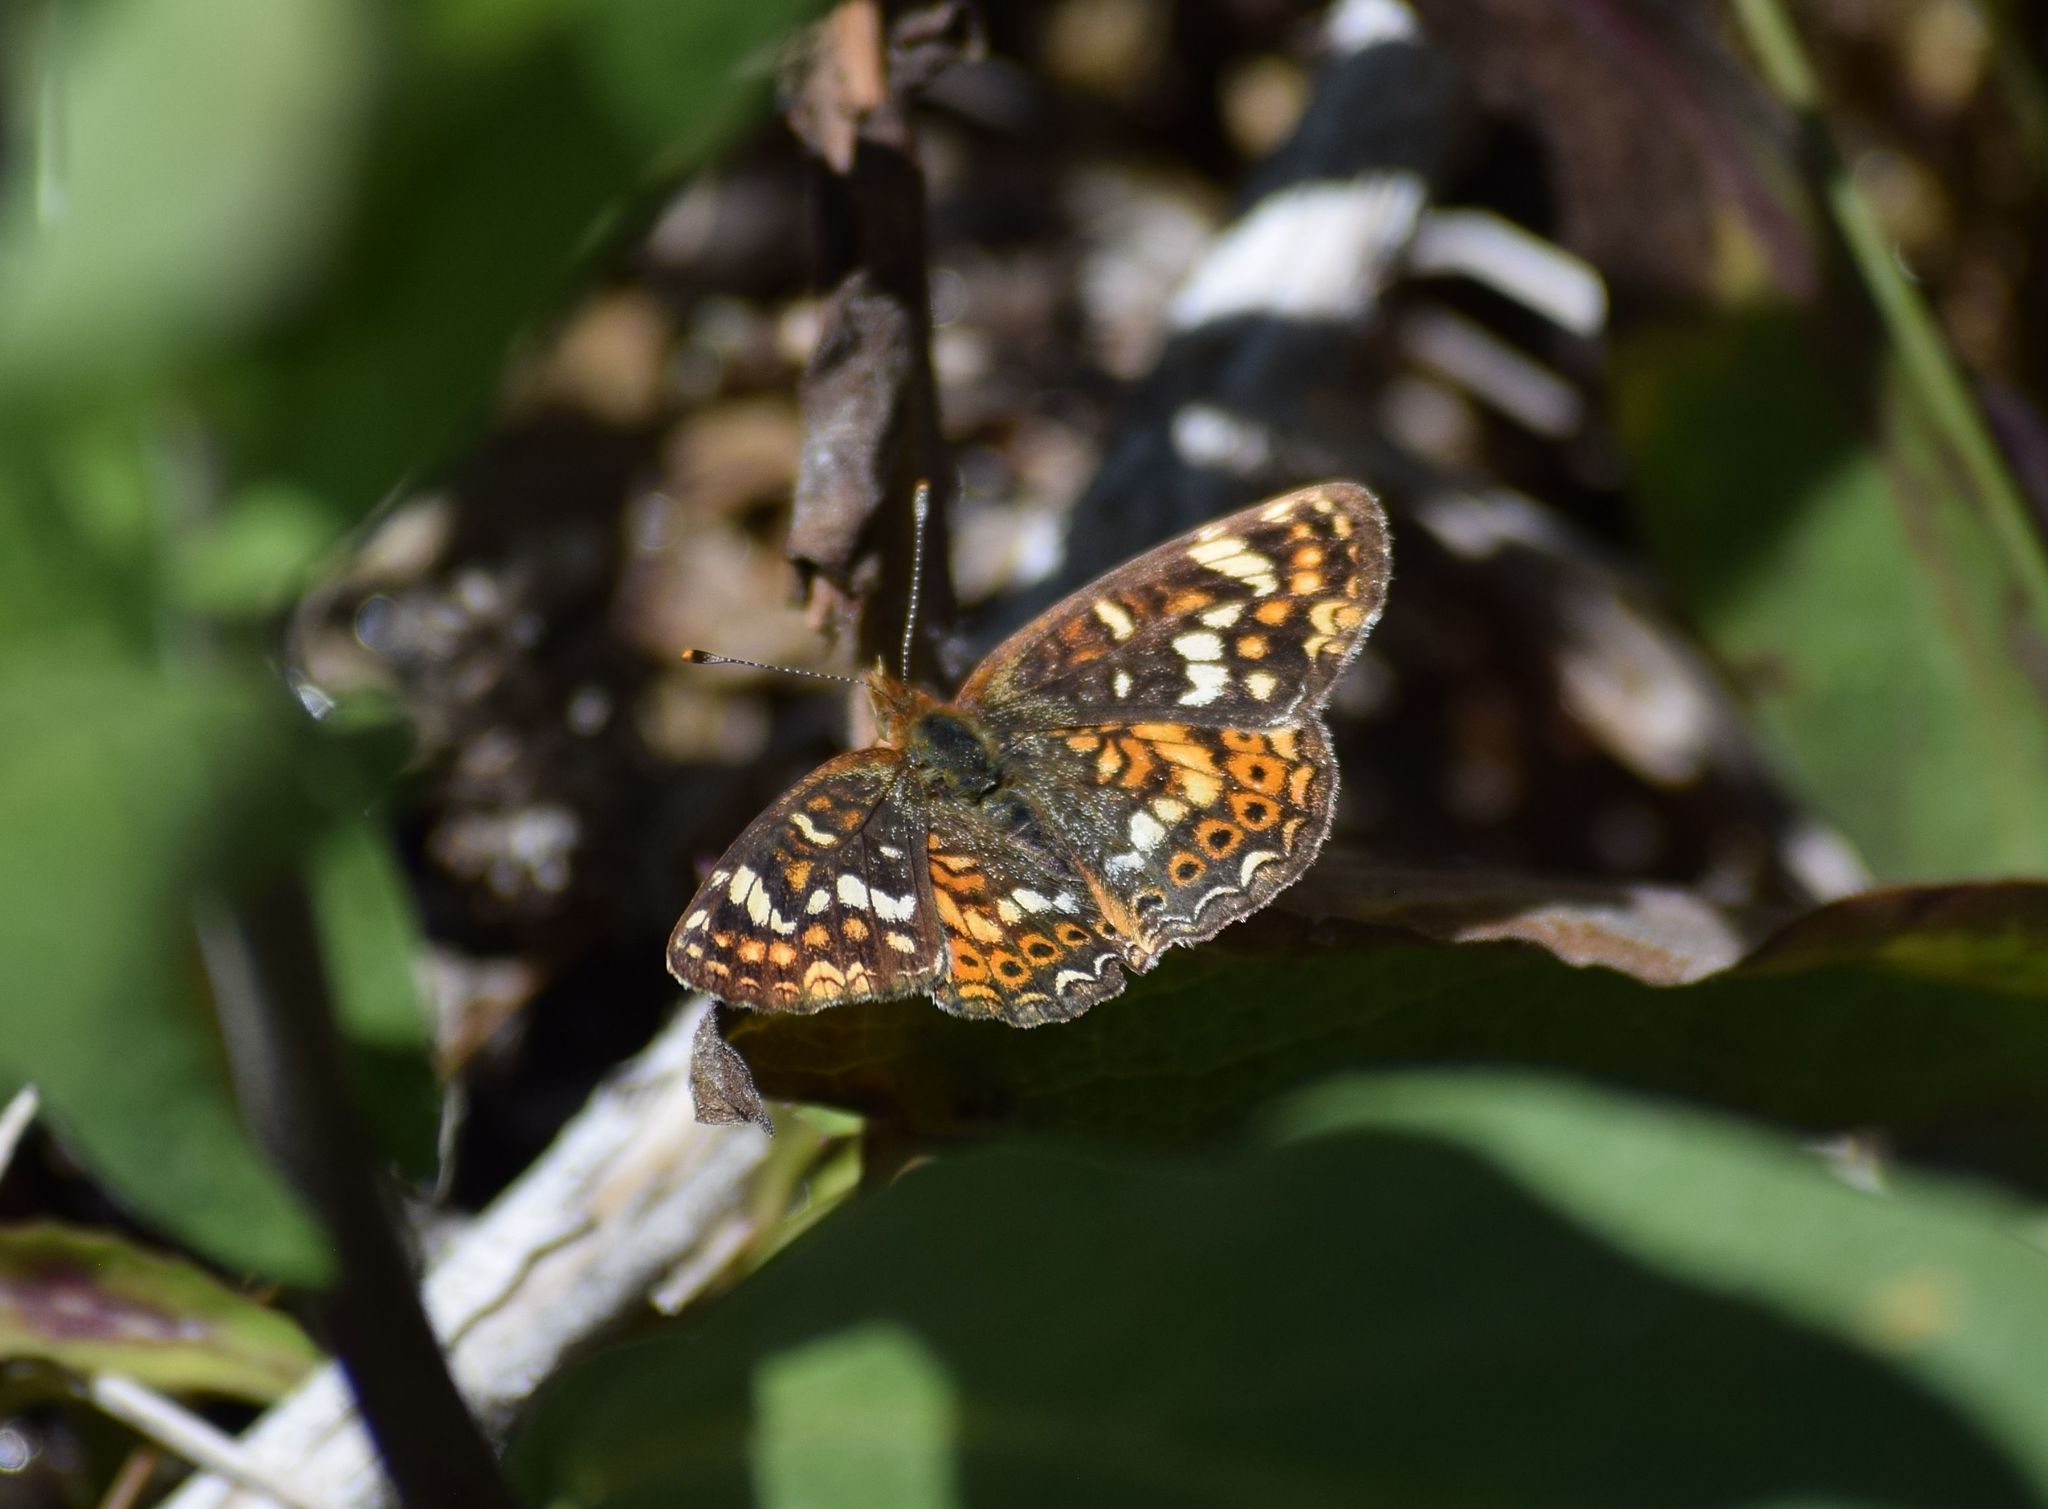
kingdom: Animalia
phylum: Arthropoda
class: Insecta
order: Lepidoptera
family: Nymphalidae
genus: Phyciodes
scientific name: Phyciodes tharos
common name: Pearl crescent
